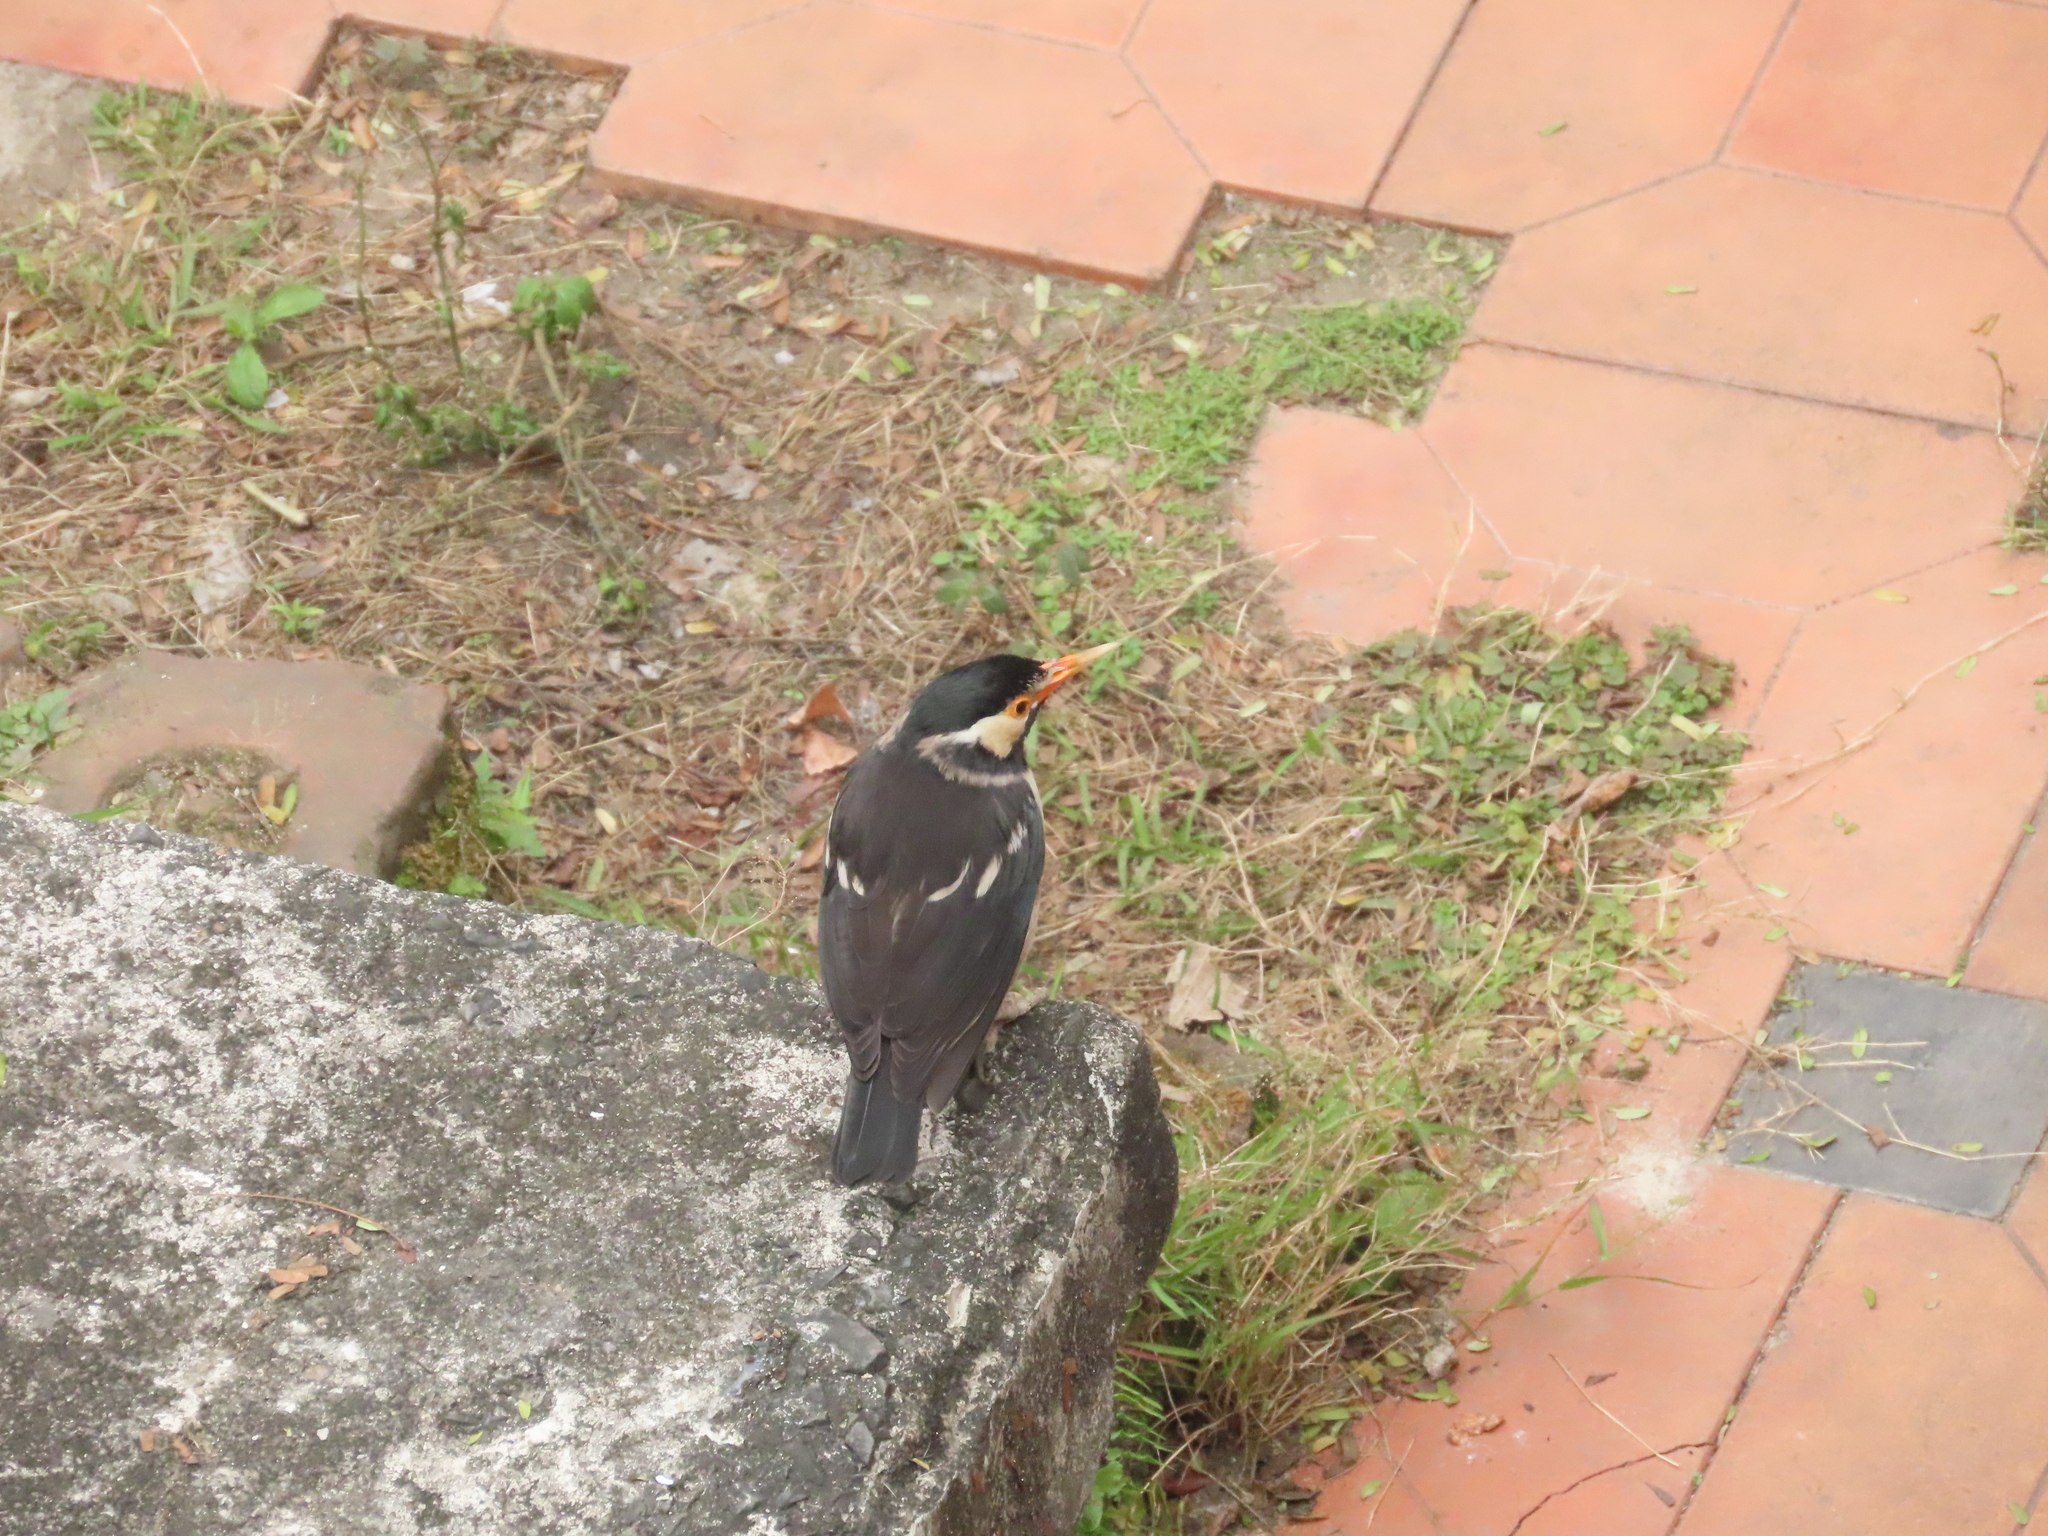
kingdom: Animalia
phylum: Chordata
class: Aves
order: Passeriformes
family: Sturnidae
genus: Gracupica
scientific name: Gracupica contra
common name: Pied myna
